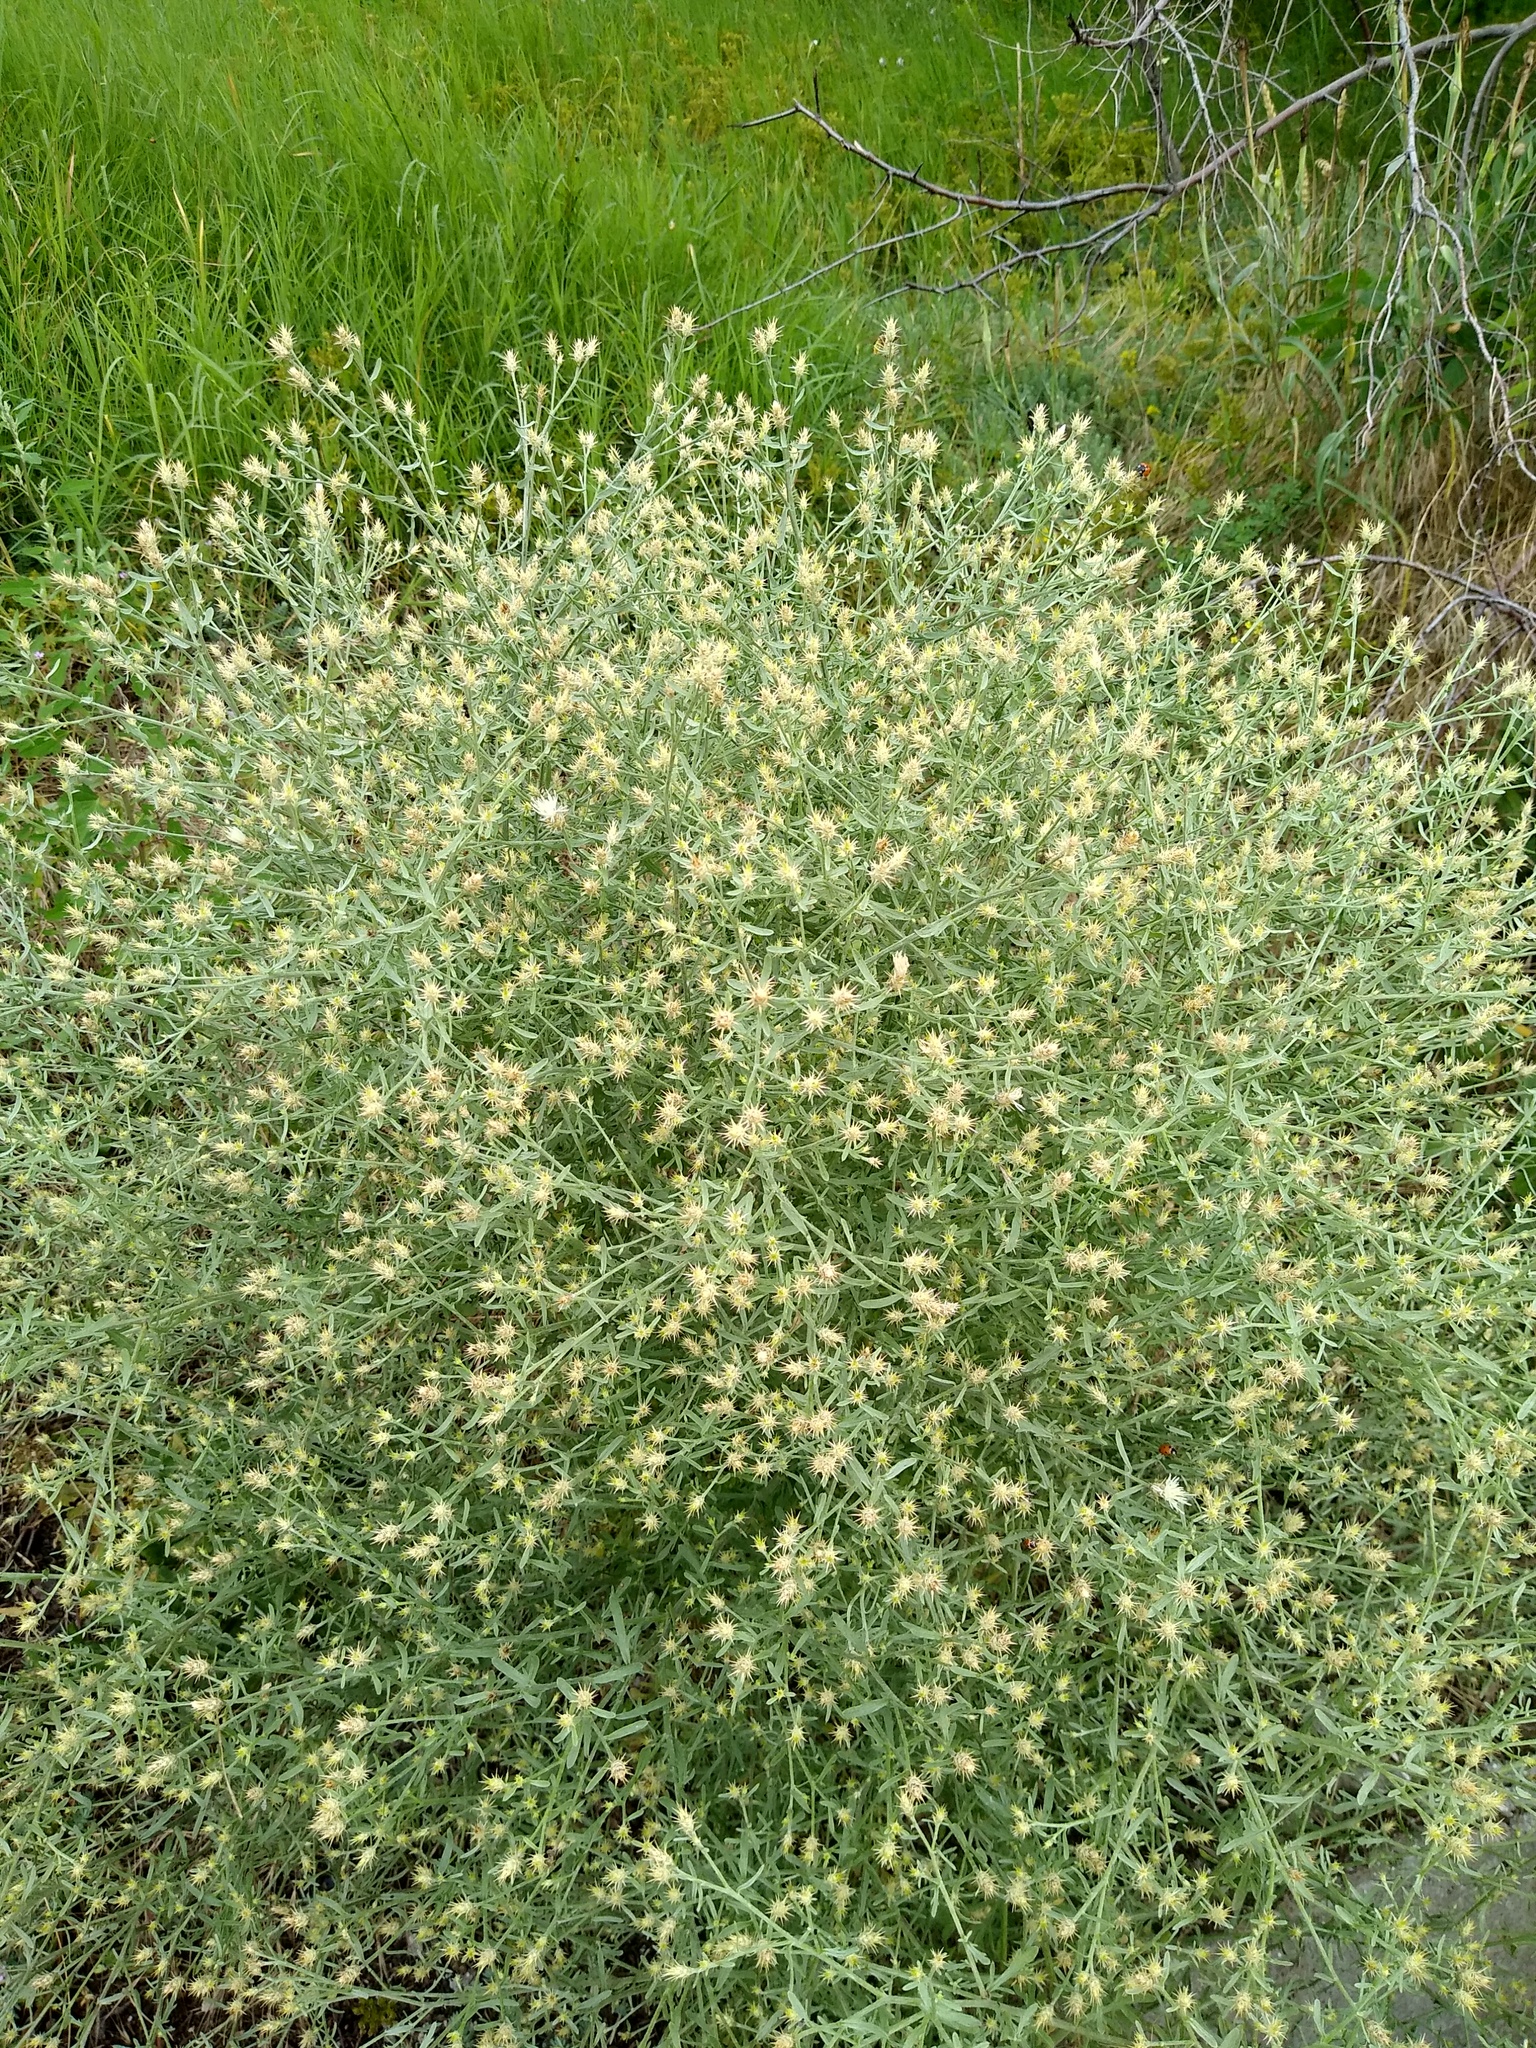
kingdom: Plantae
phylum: Tracheophyta
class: Magnoliopsida
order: Asterales
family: Asteraceae
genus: Centaurea
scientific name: Centaurea diffusa
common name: Diffuse knapweed
